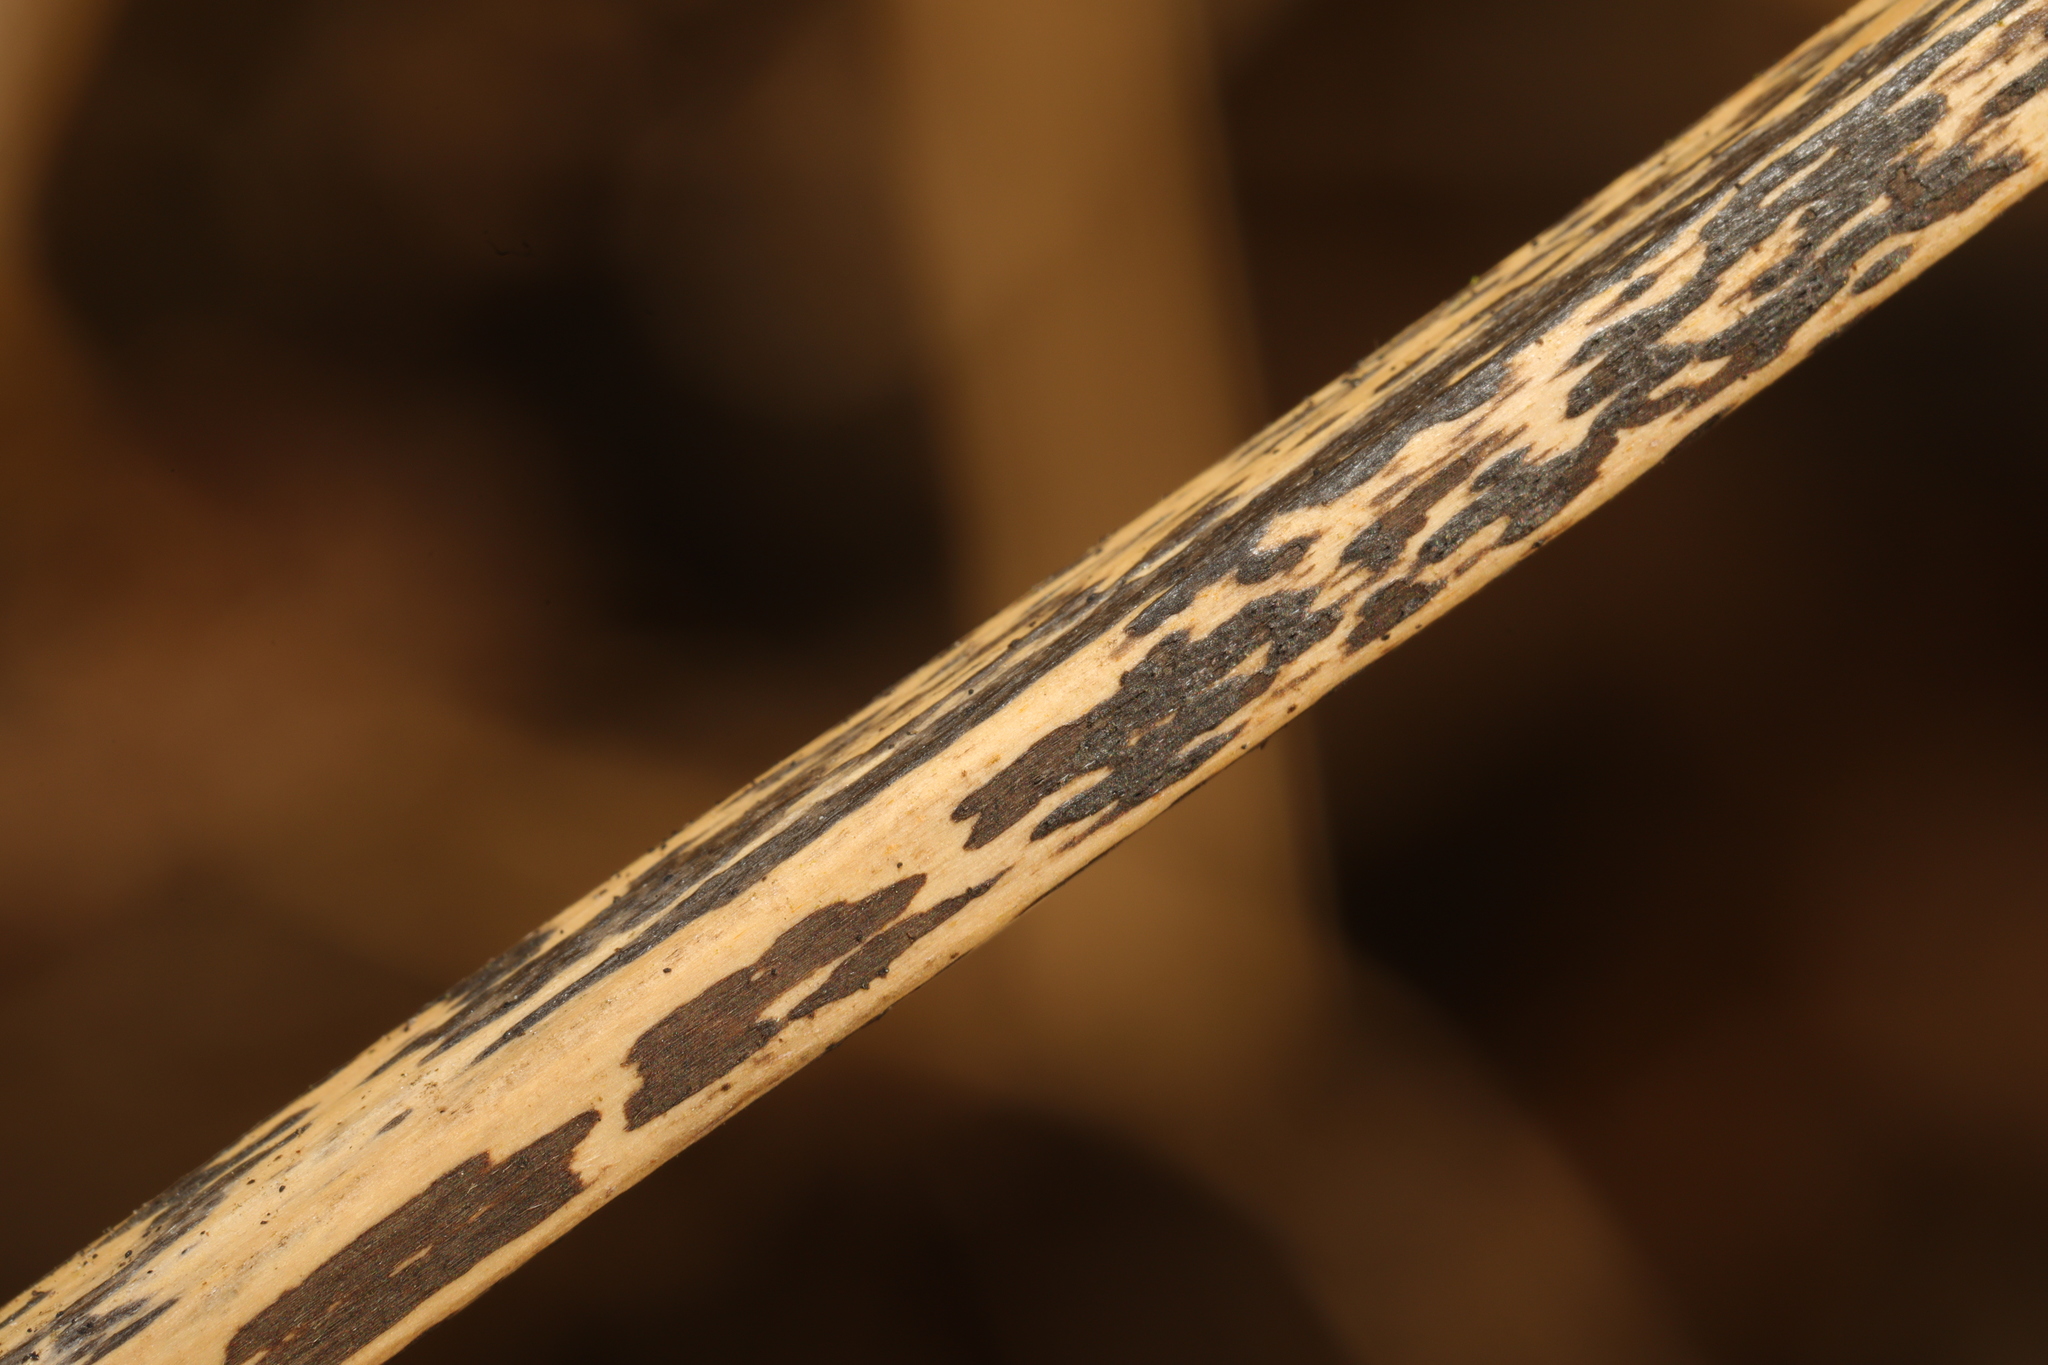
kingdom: Fungi
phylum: Ascomycota
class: Dothideomycetes
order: Pleosporales
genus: Rhopographus
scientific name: Rhopographus filicinus
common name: Bracken map
